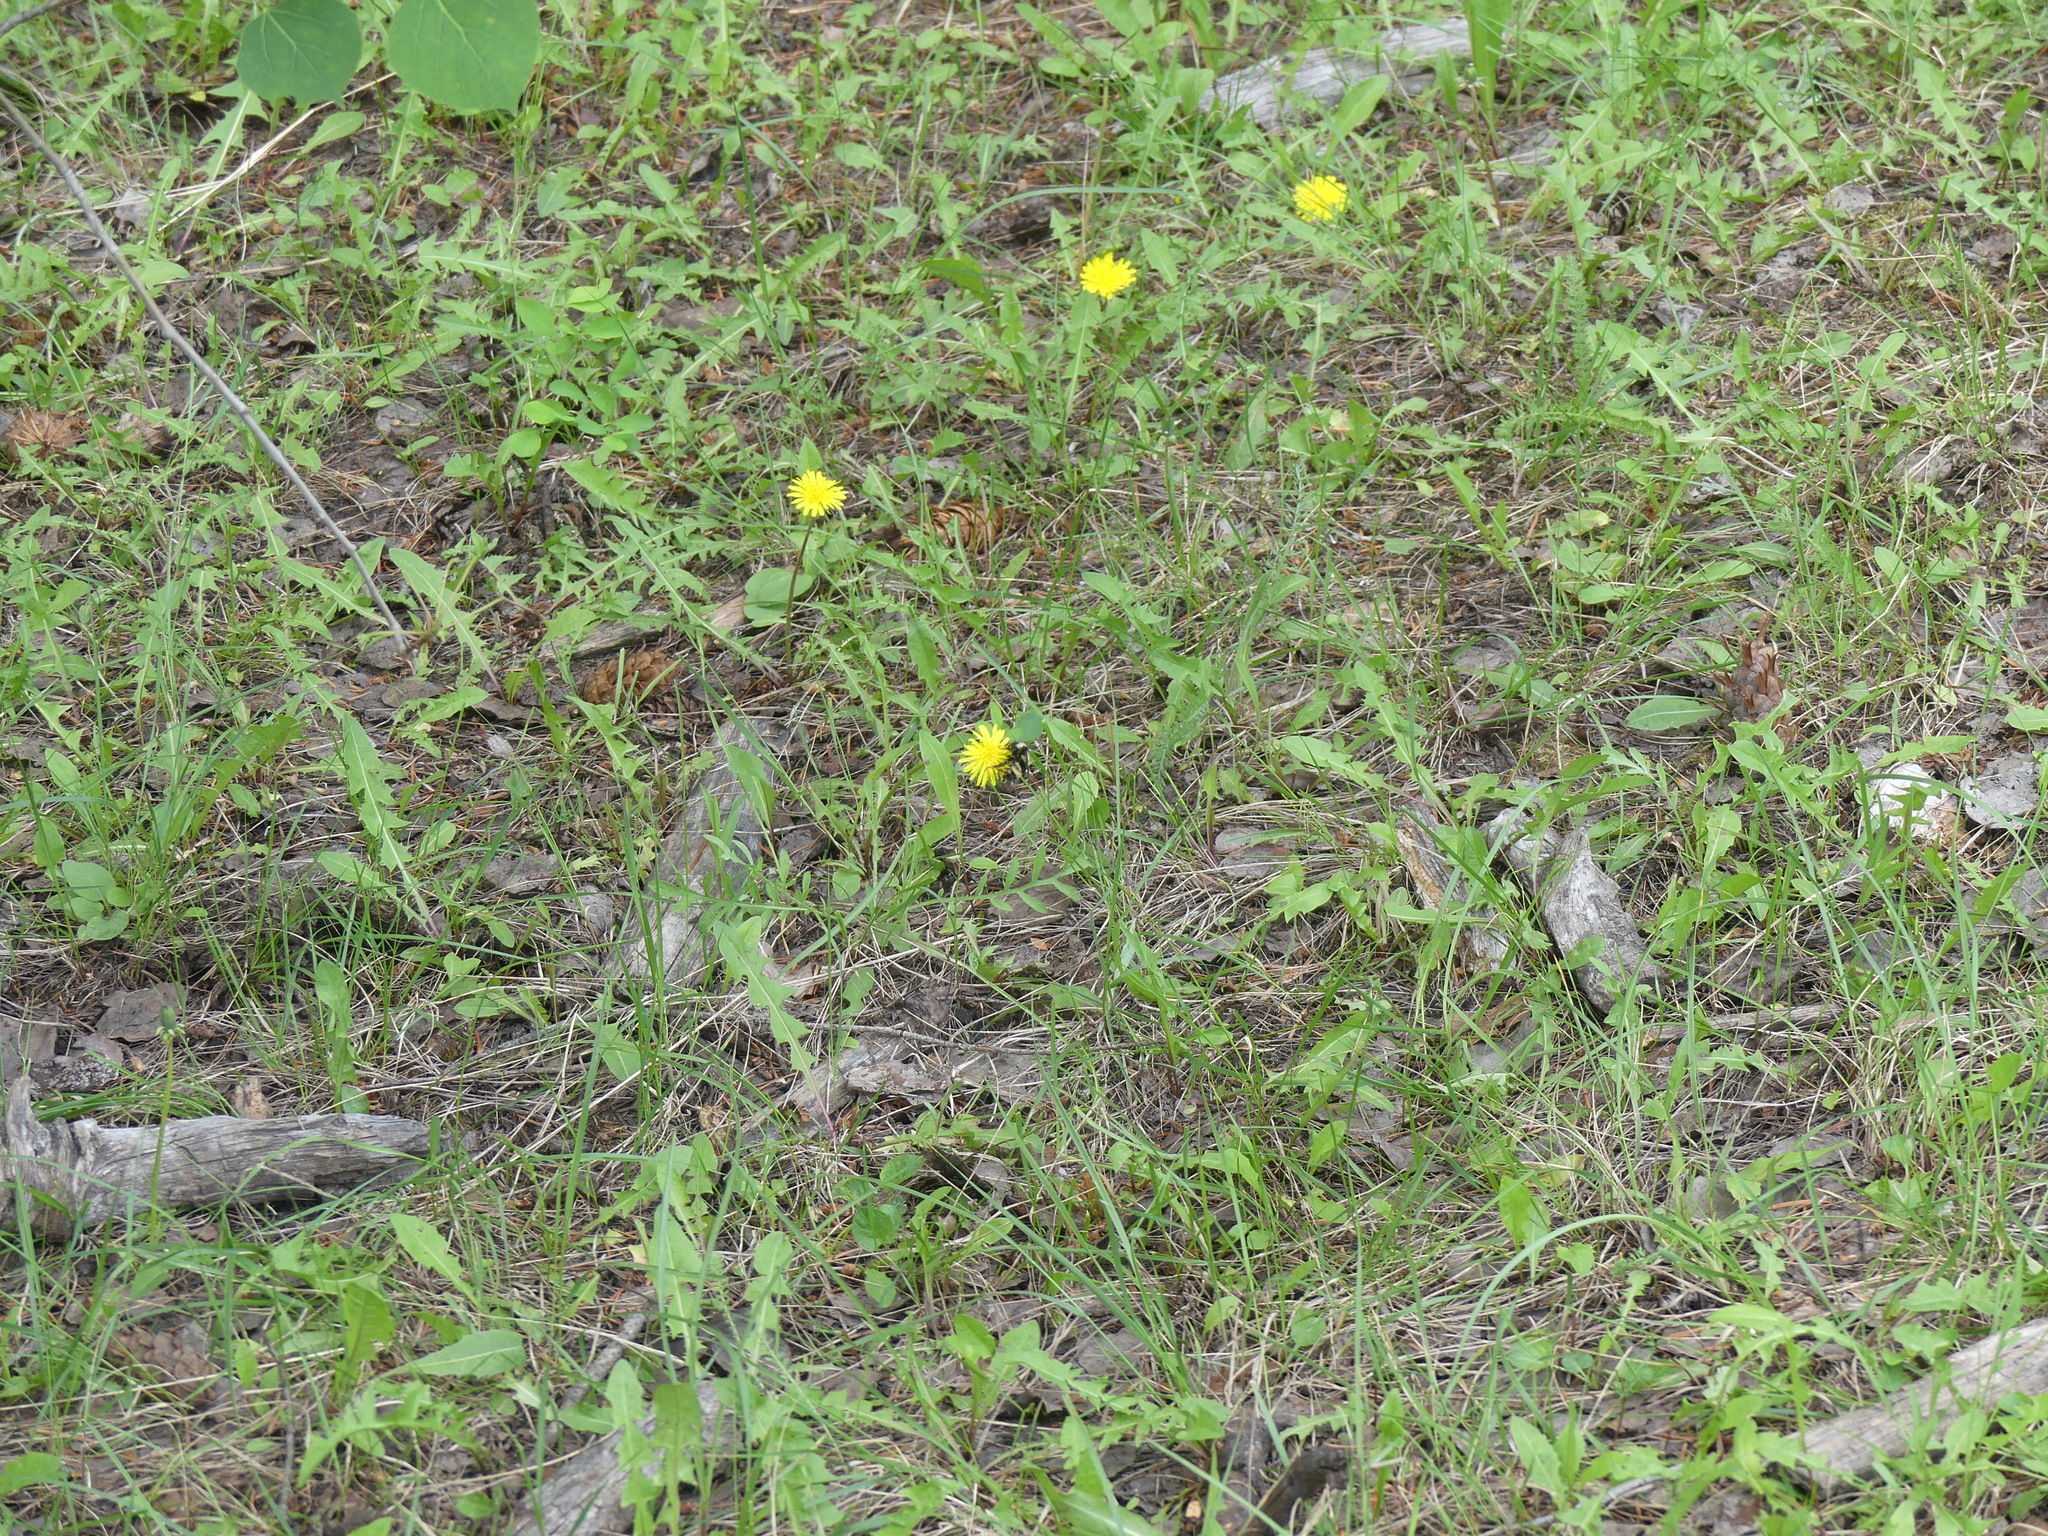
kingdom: Plantae
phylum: Tracheophyta
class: Magnoliopsida
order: Asterales
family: Asteraceae
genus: Taraxacum
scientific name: Taraxacum
